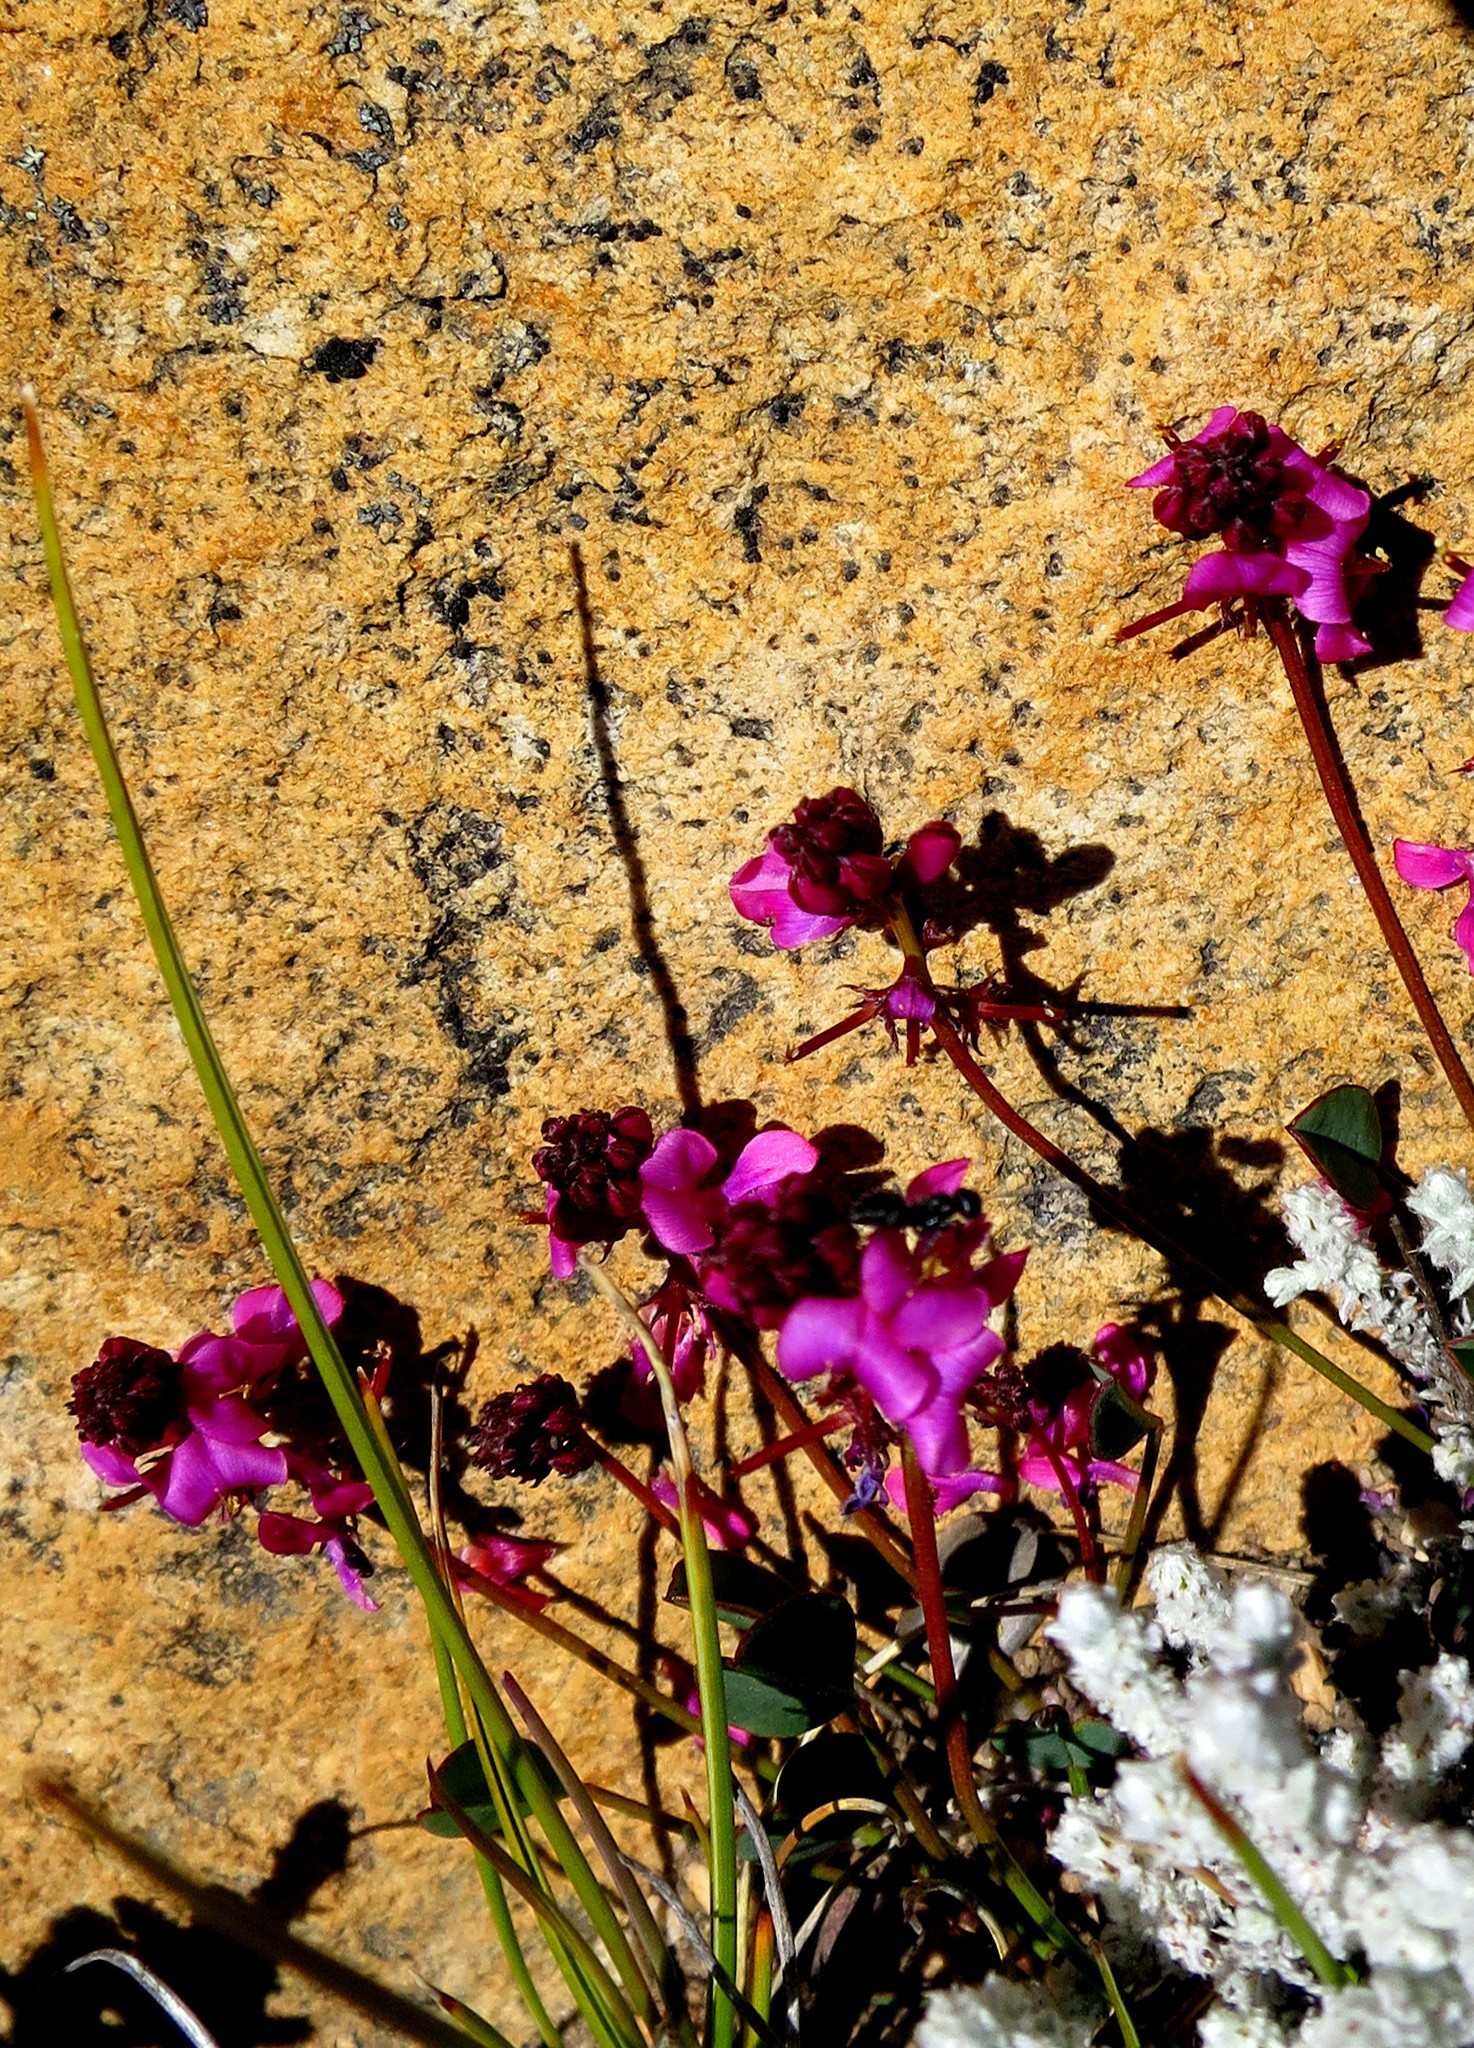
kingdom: Plantae
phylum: Tracheophyta
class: Magnoliopsida
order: Fabales
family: Fabaceae
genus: Indigofera
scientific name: Indigofera
